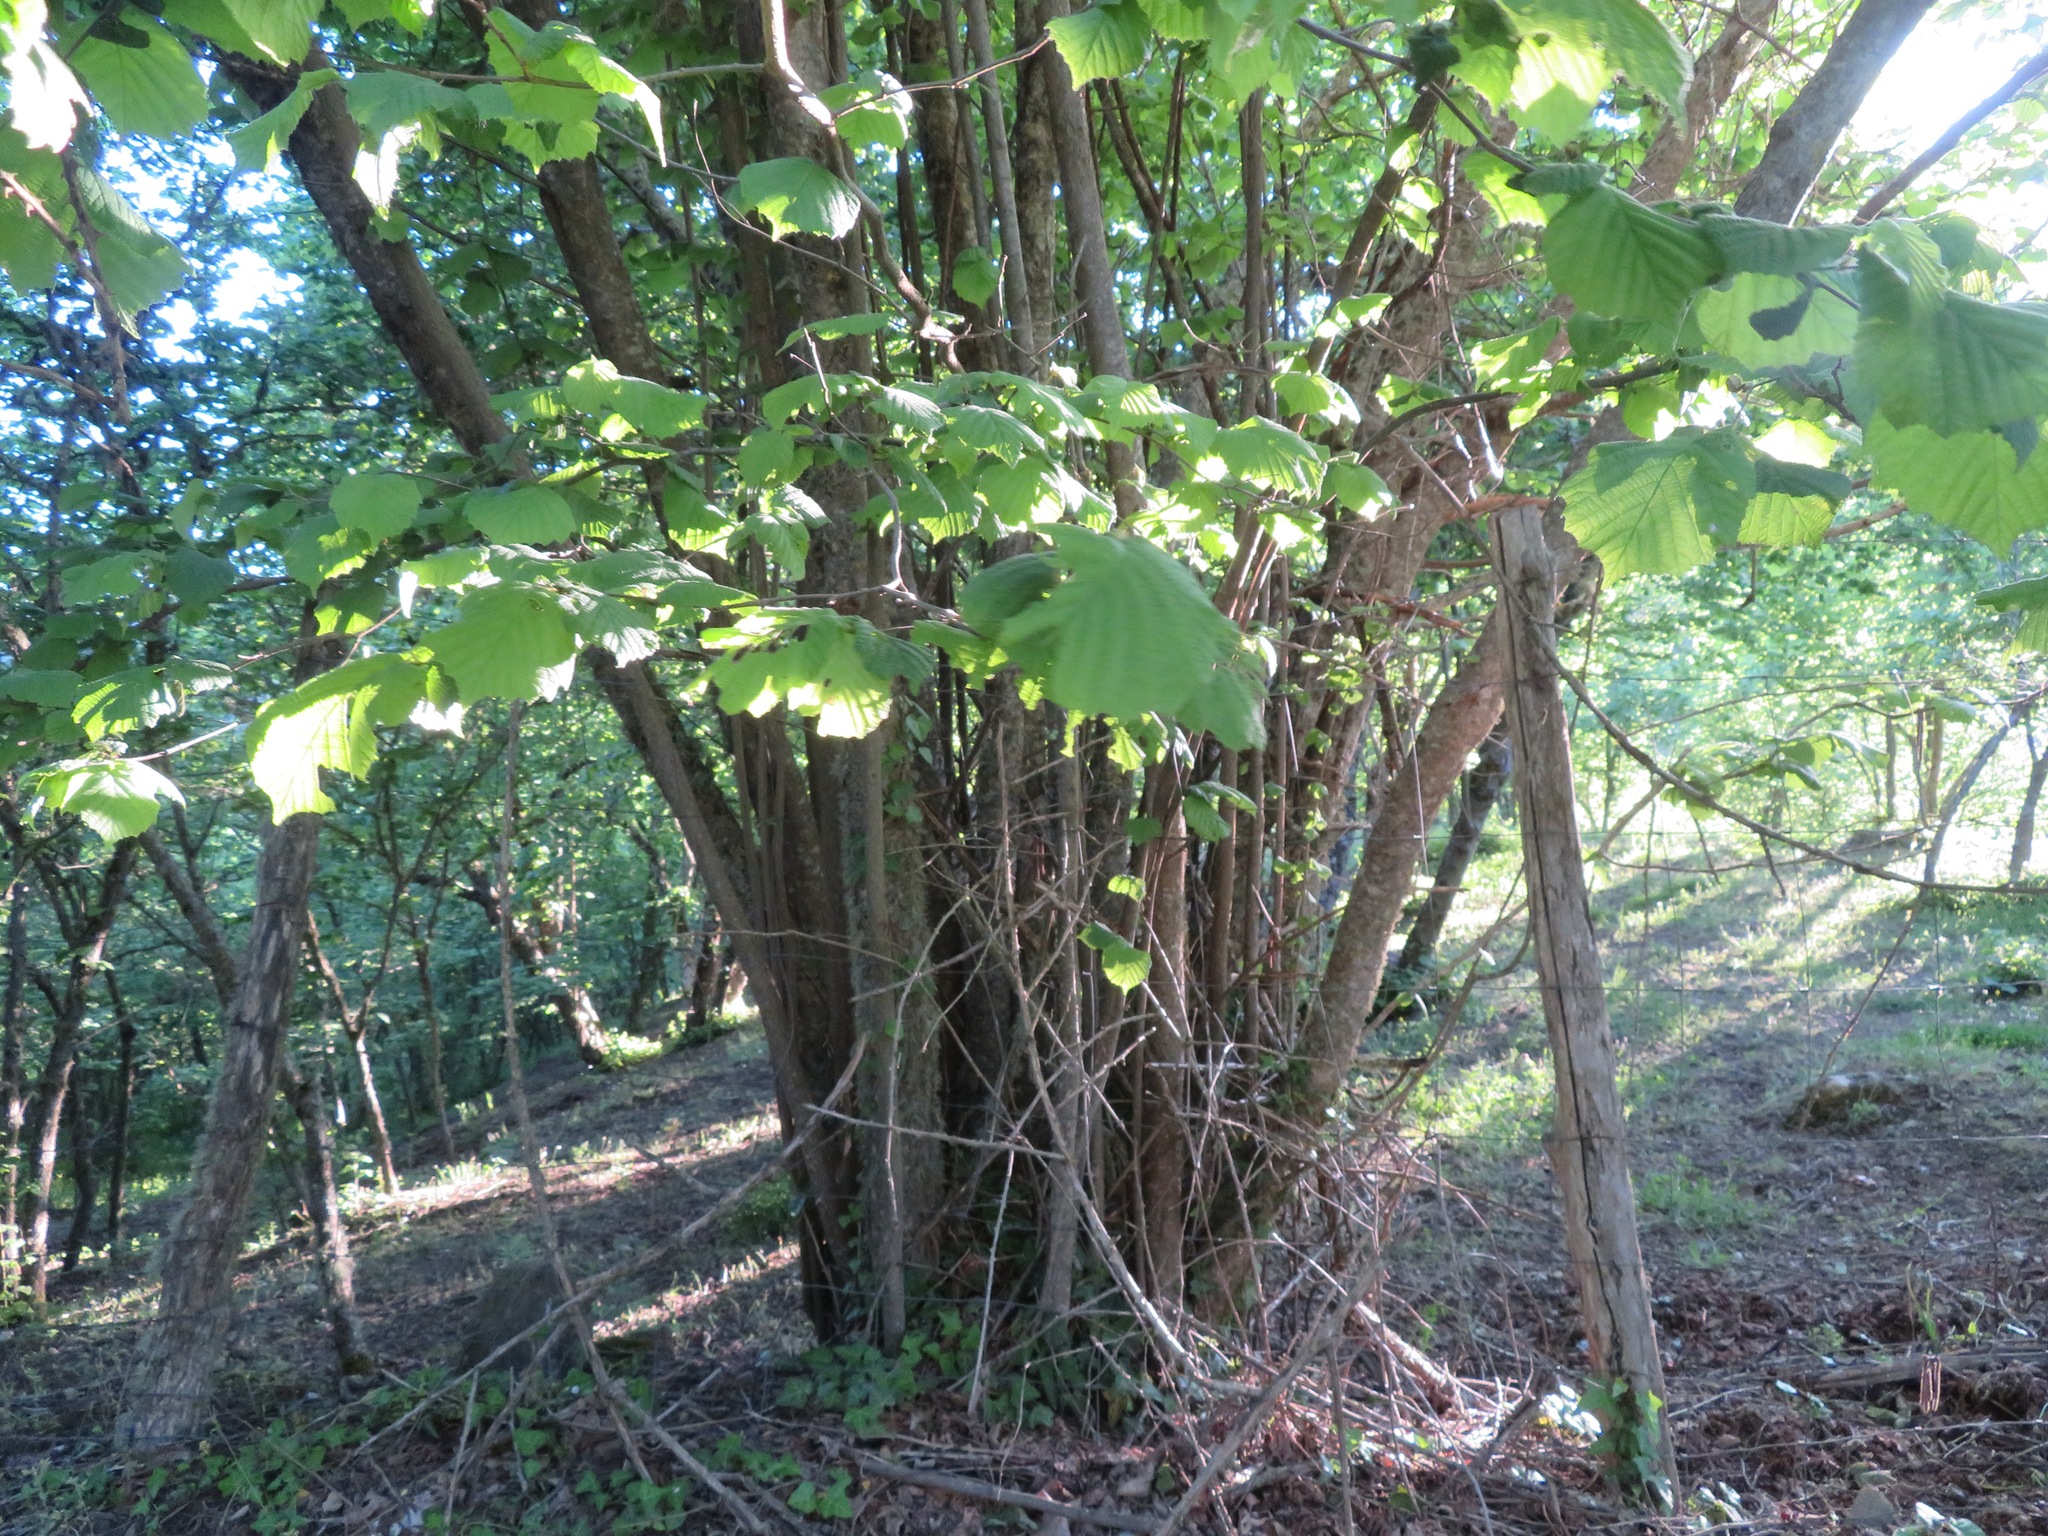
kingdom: Plantae
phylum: Tracheophyta
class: Magnoliopsida
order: Fagales
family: Betulaceae
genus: Corylus
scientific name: Corylus avellana
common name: European hazel
